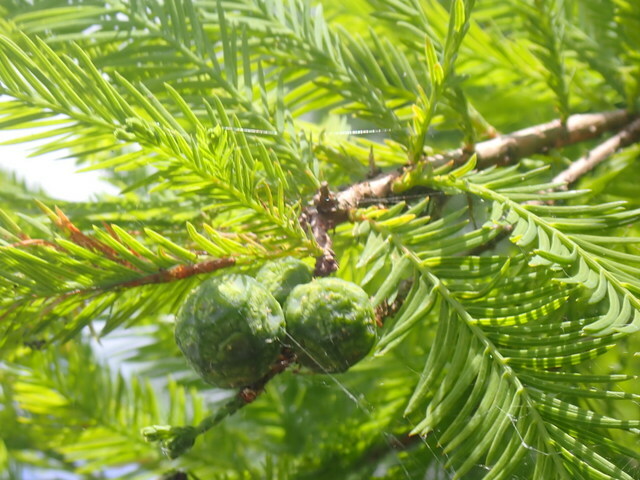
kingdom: Plantae
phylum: Tracheophyta
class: Pinopsida
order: Pinales
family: Cupressaceae
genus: Taxodium
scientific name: Taxodium distichum
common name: Bald cypress
